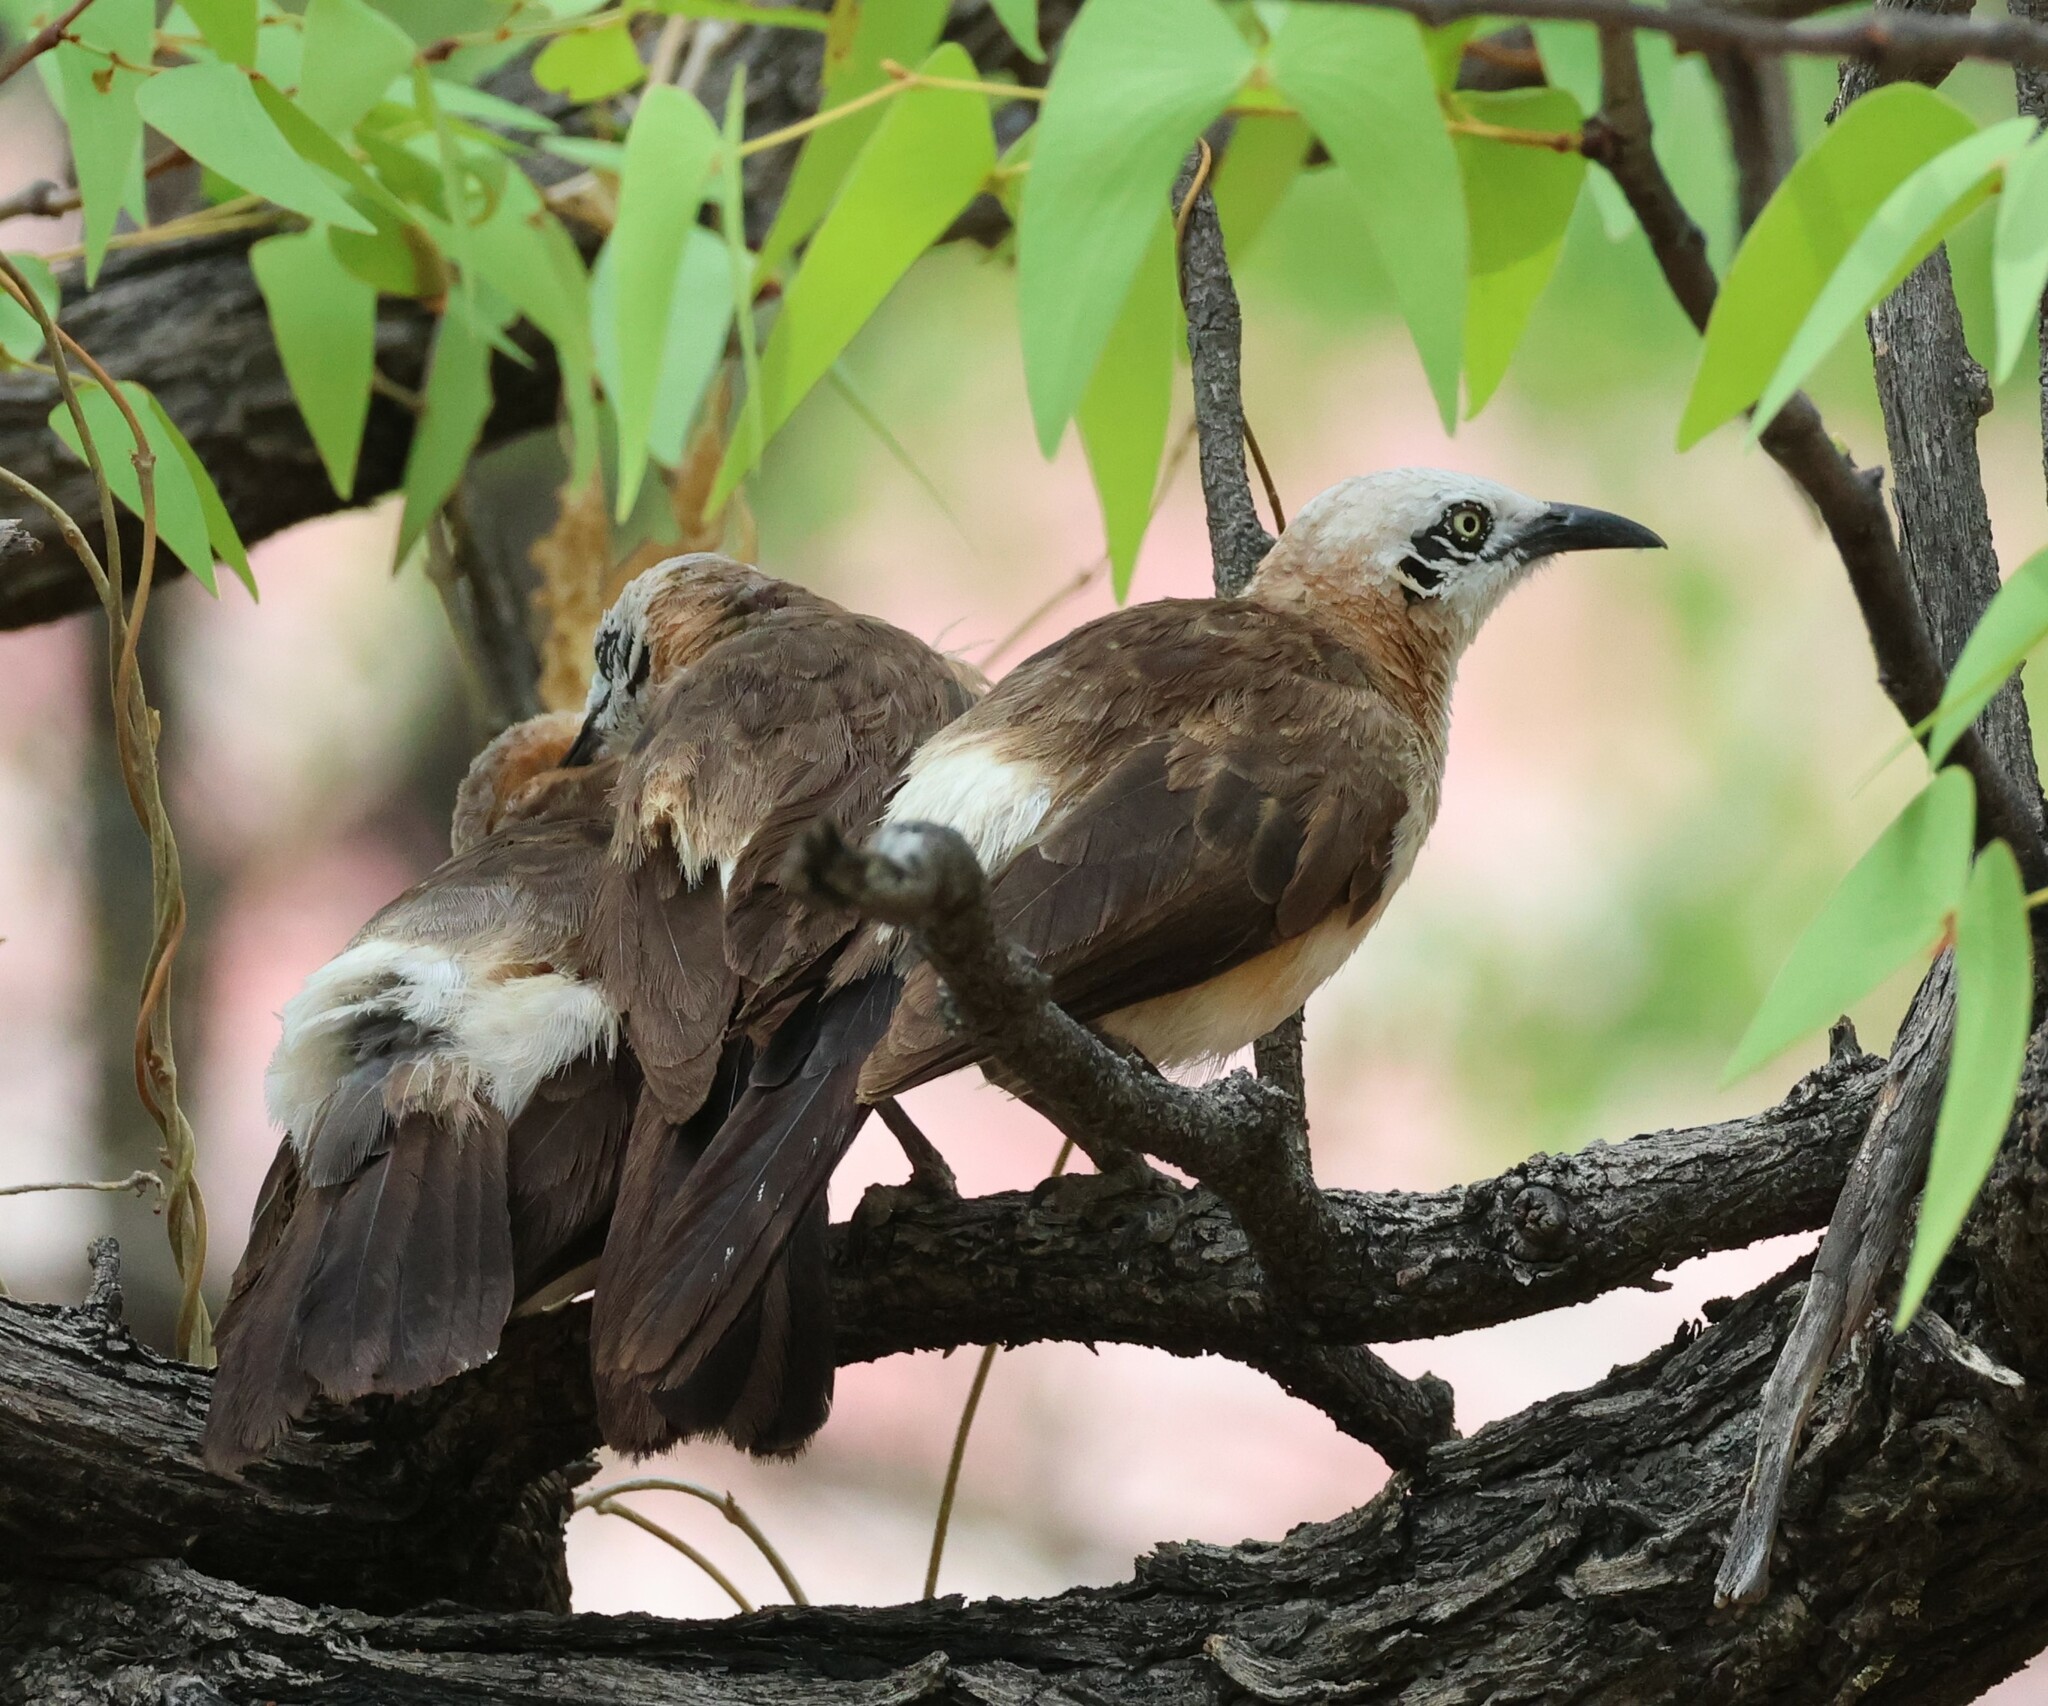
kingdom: Animalia
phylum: Chordata
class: Aves
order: Passeriformes
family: Leiothrichidae
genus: Turdoides
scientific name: Turdoides gymnogenys
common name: Bare-cheeked babbler
